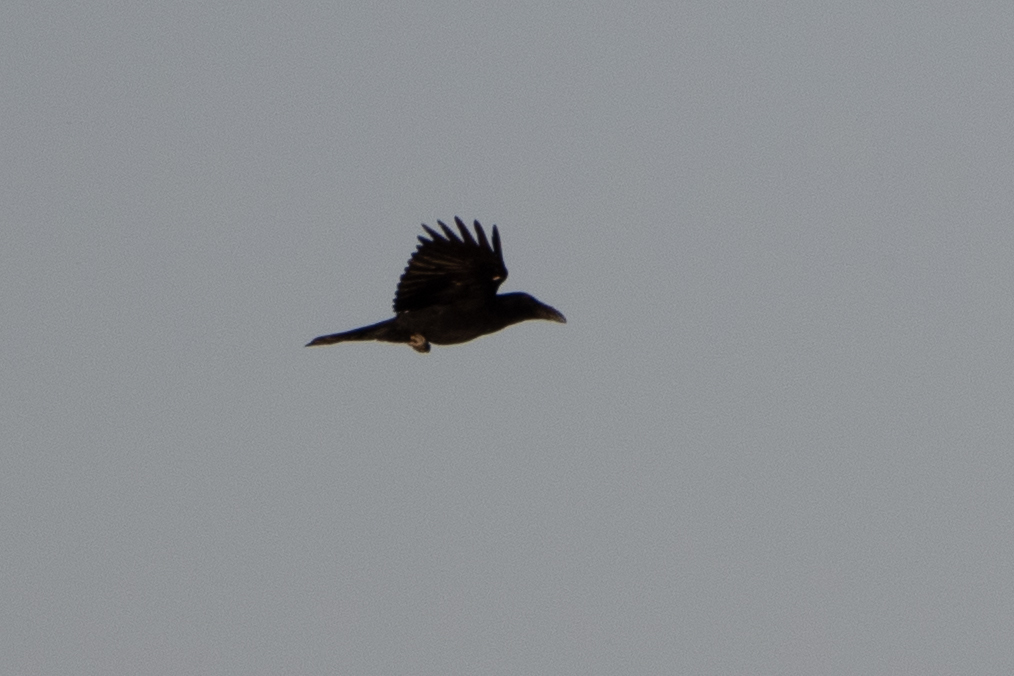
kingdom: Animalia
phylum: Chordata
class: Aves
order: Passeriformes
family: Corvidae
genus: Corvus
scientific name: Corvus corax
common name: Common raven
